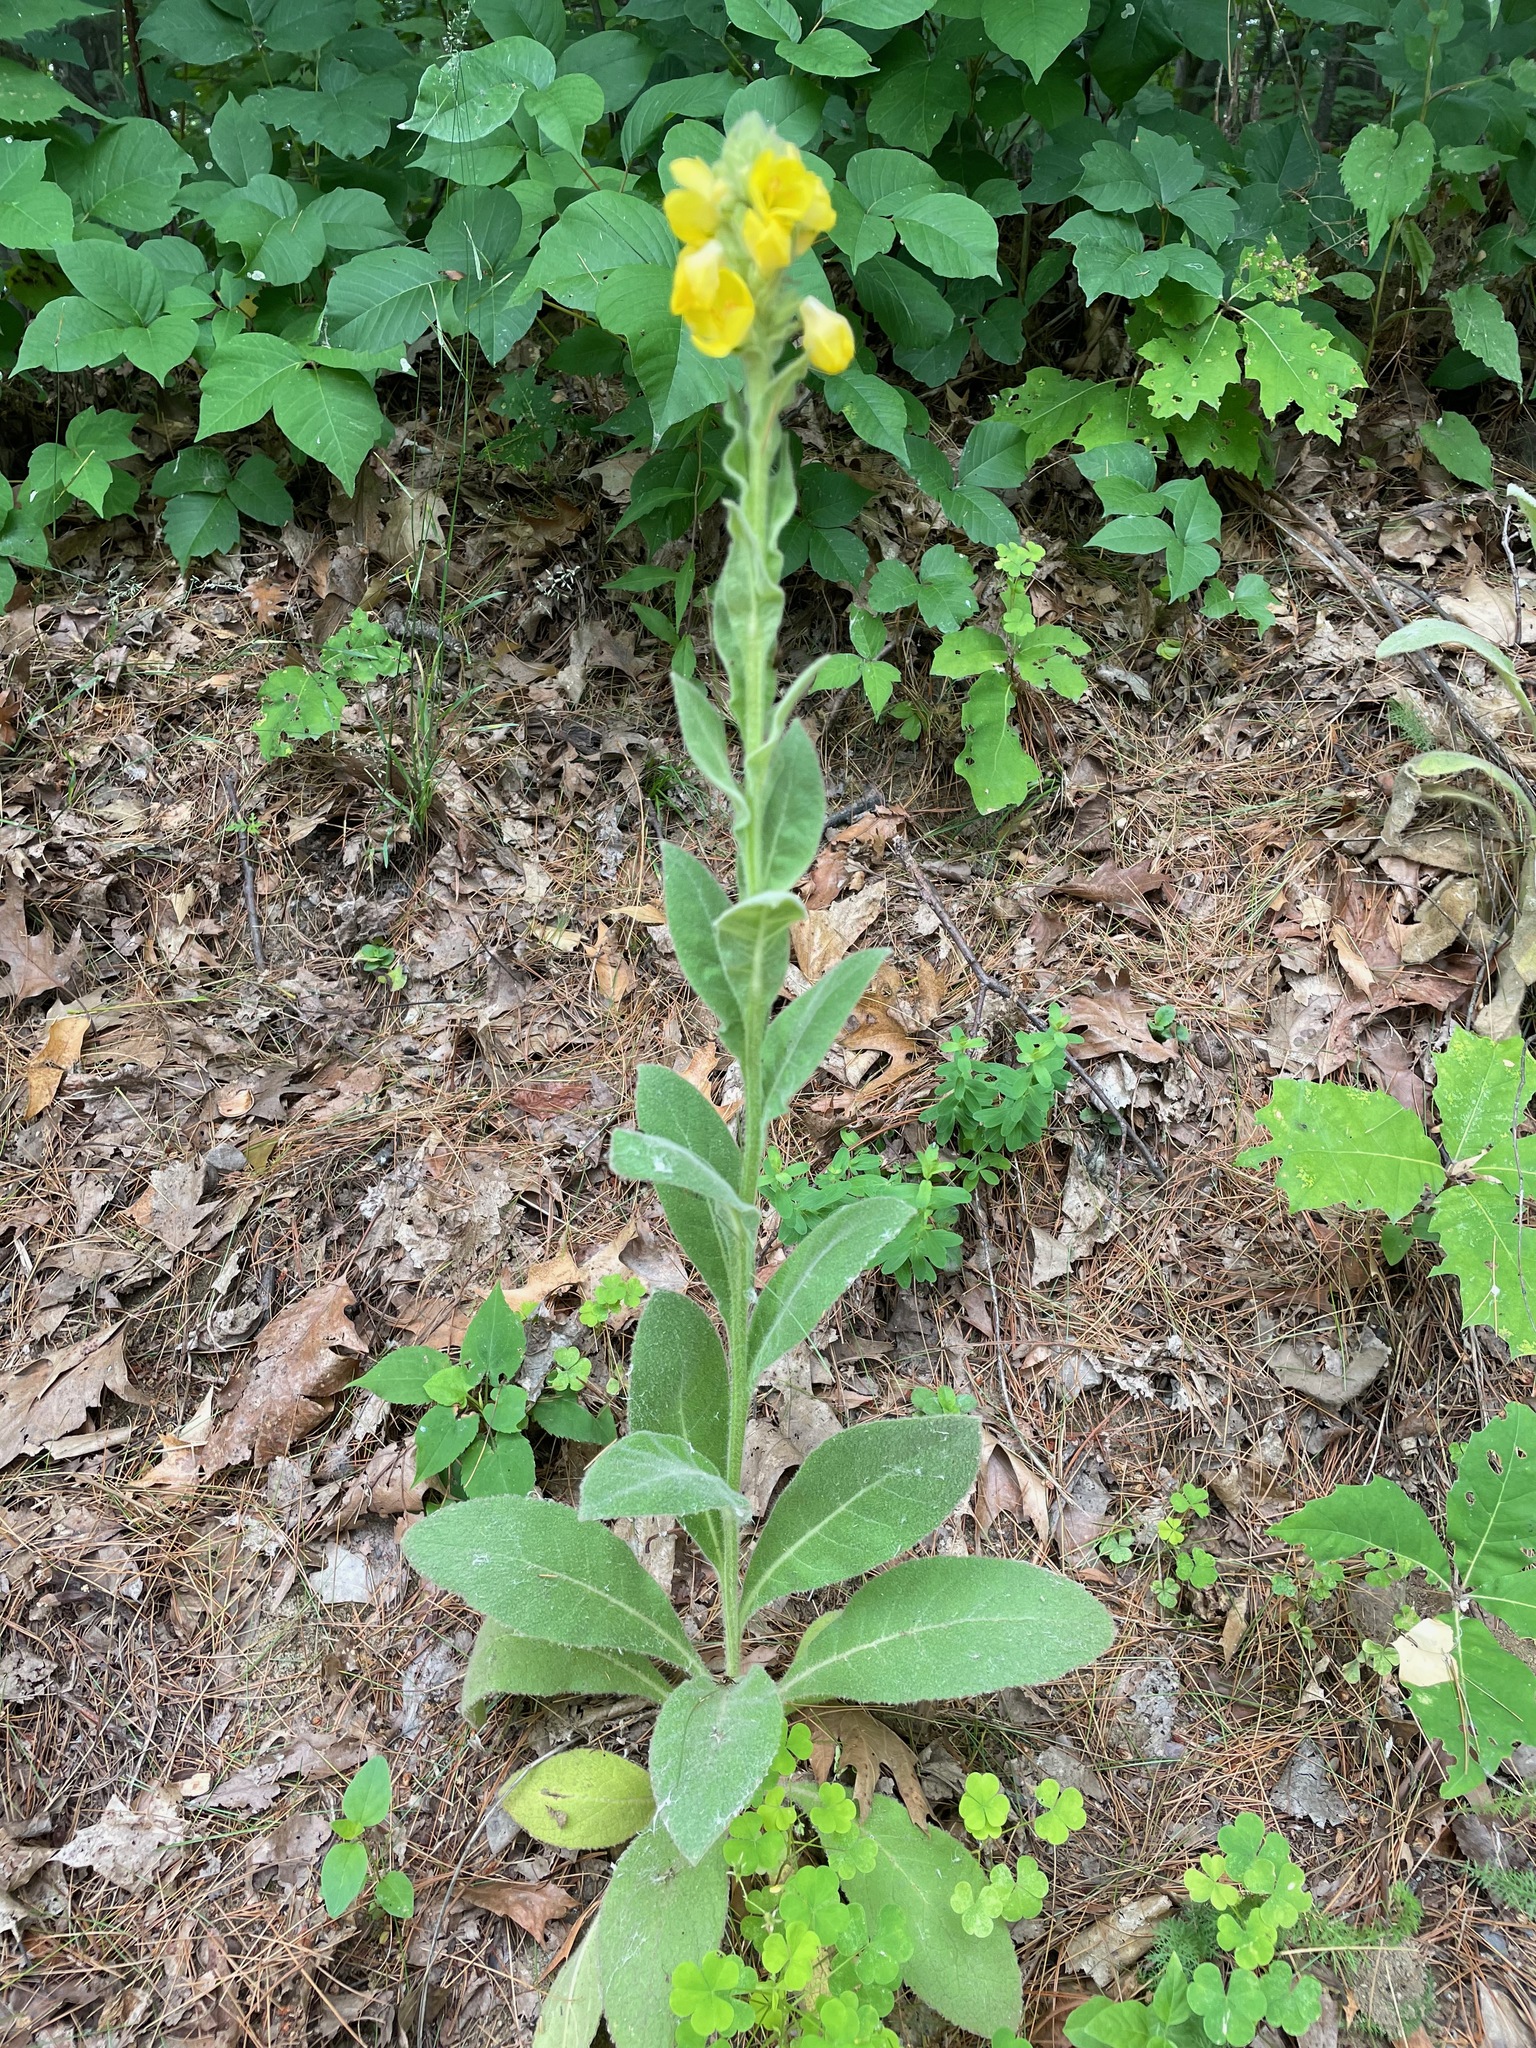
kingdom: Plantae
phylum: Tracheophyta
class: Magnoliopsida
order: Lamiales
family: Scrophulariaceae
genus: Verbascum
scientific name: Verbascum thapsus
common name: Common mullein
